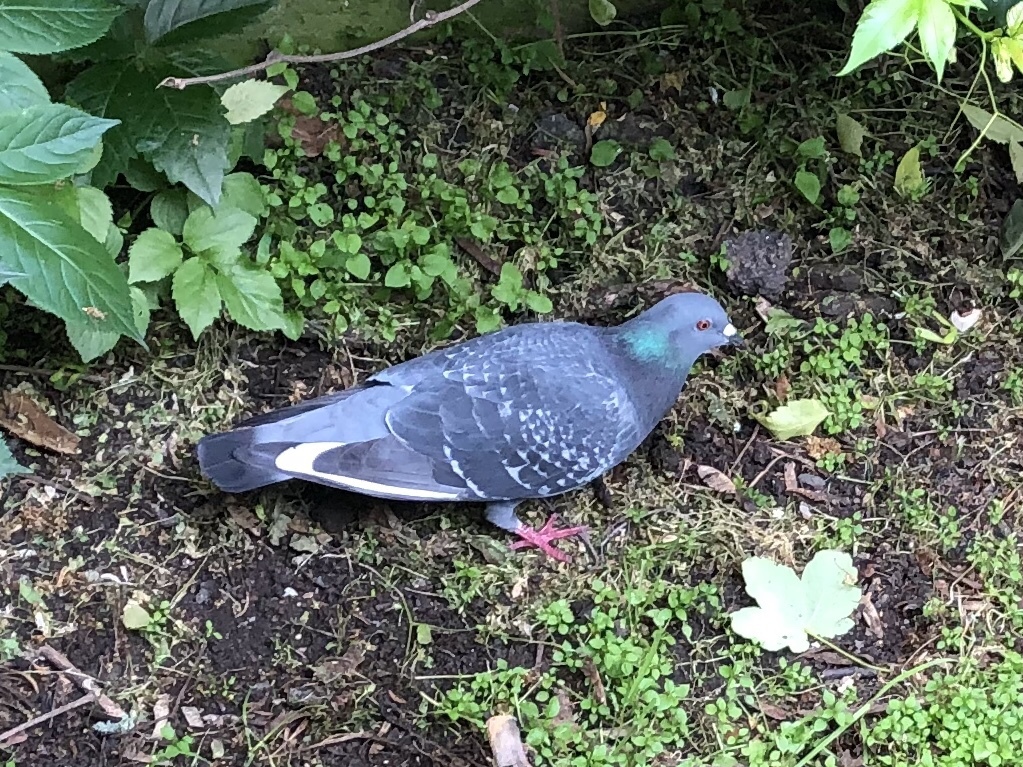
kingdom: Animalia
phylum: Chordata
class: Aves
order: Columbiformes
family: Columbidae
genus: Columba
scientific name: Columba livia
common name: Rock pigeon
